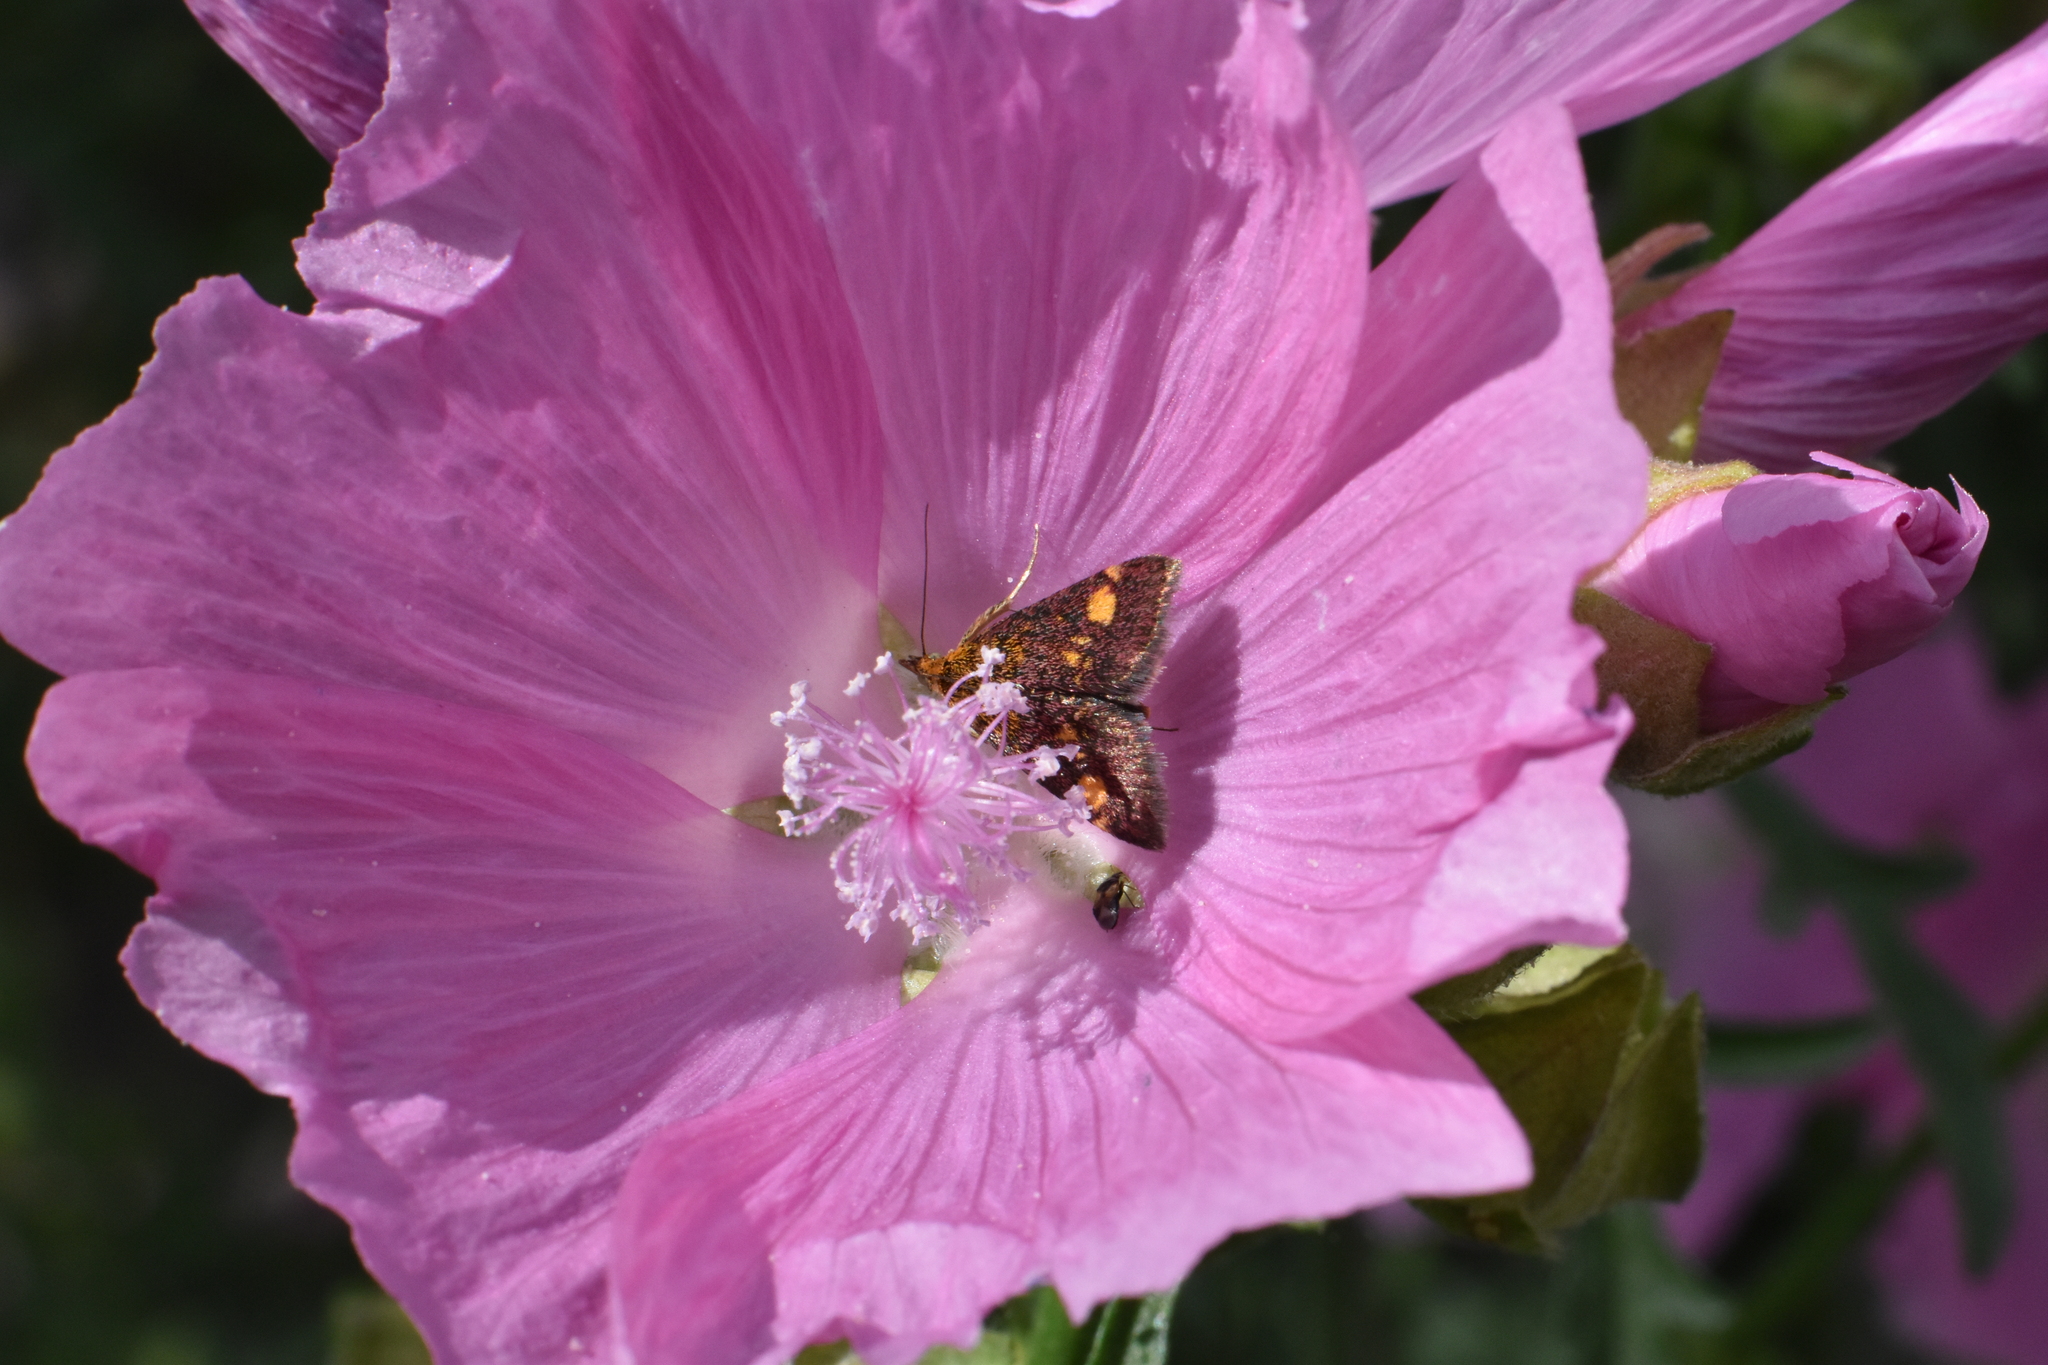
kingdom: Animalia
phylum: Arthropoda
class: Insecta
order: Lepidoptera
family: Crambidae
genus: Pyrausta
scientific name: Pyrausta aurata
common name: Small purple & gold
